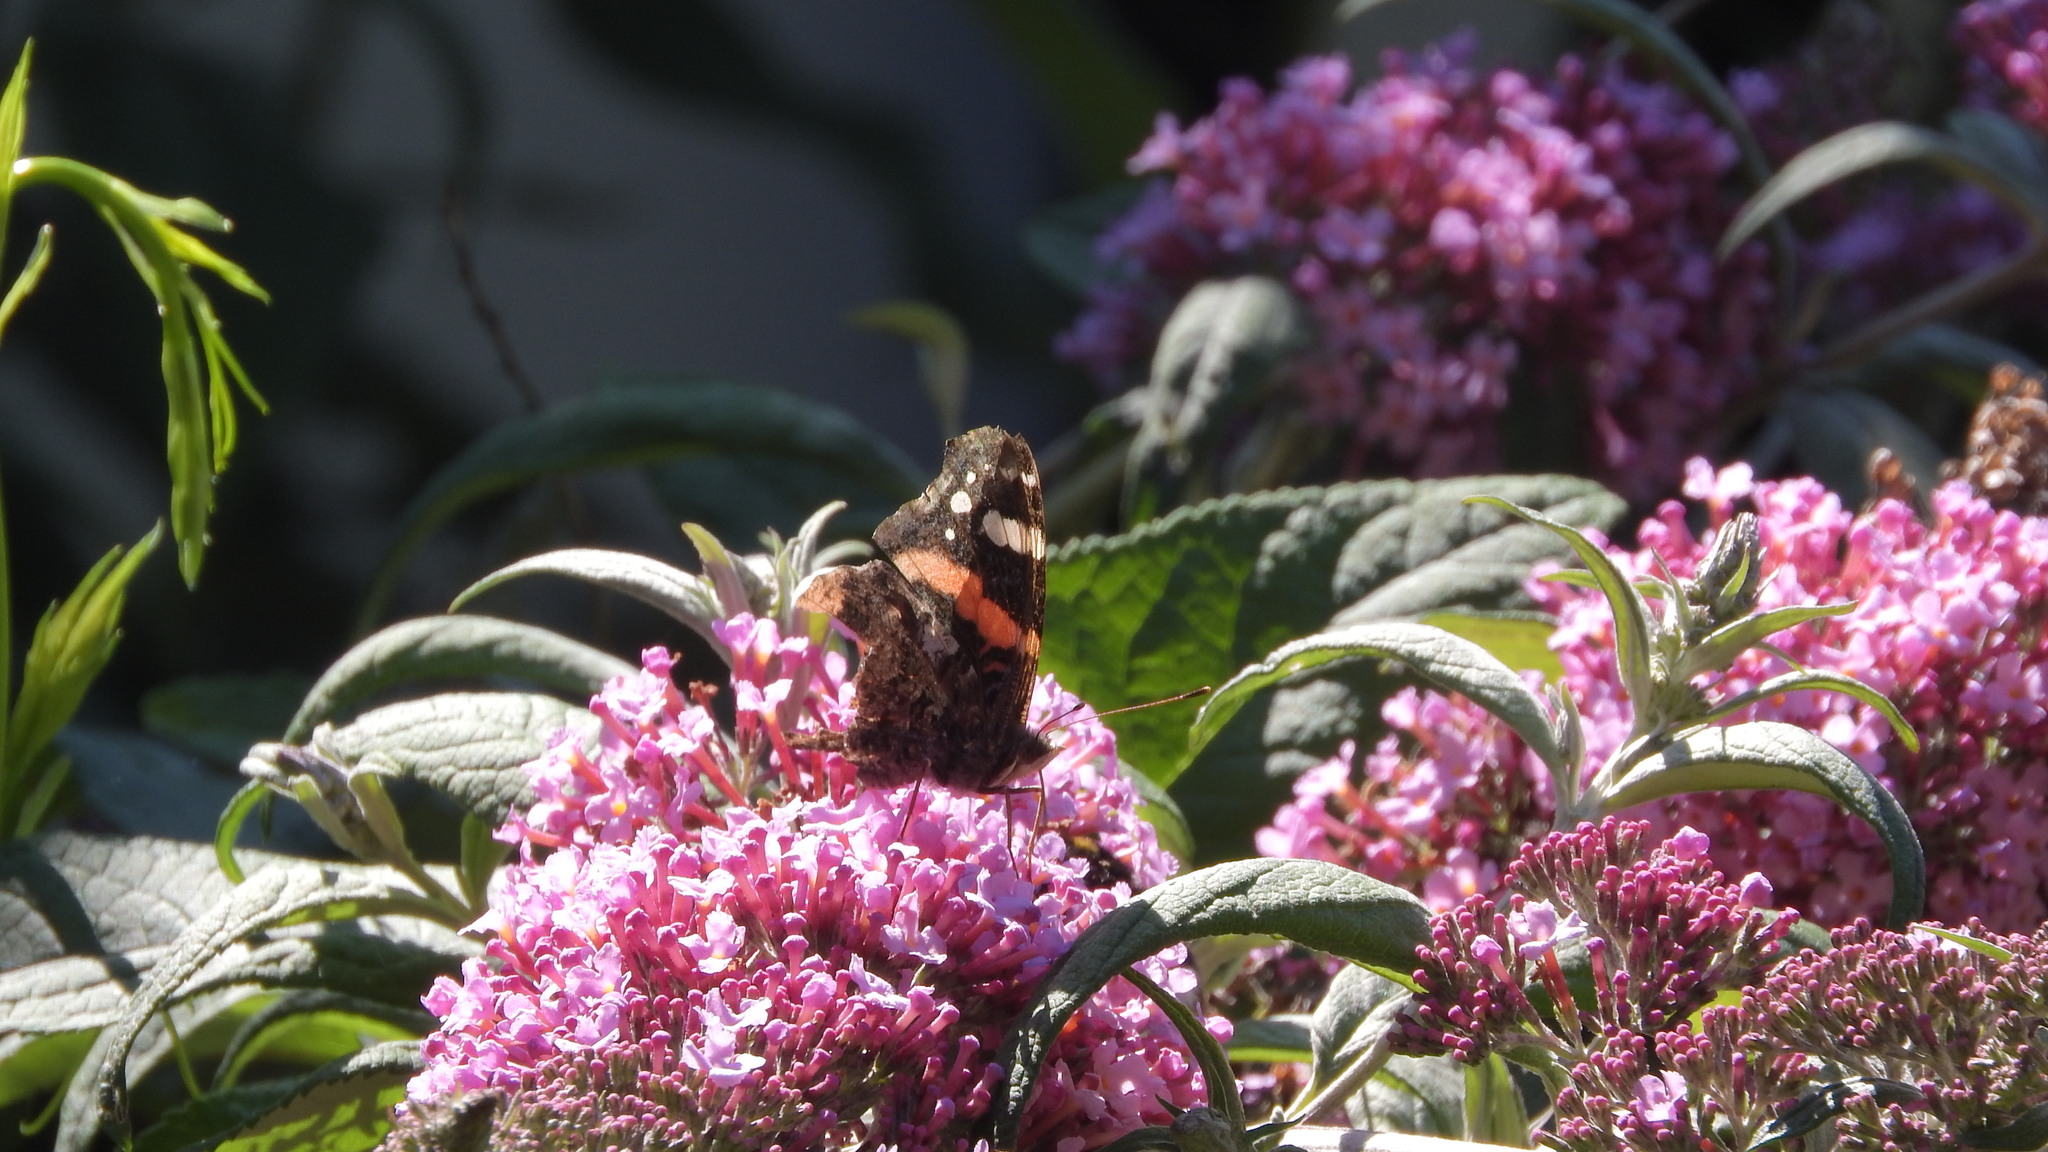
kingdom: Animalia
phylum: Arthropoda
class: Insecta
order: Lepidoptera
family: Nymphalidae
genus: Vanessa
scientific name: Vanessa atalanta
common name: Red admiral
